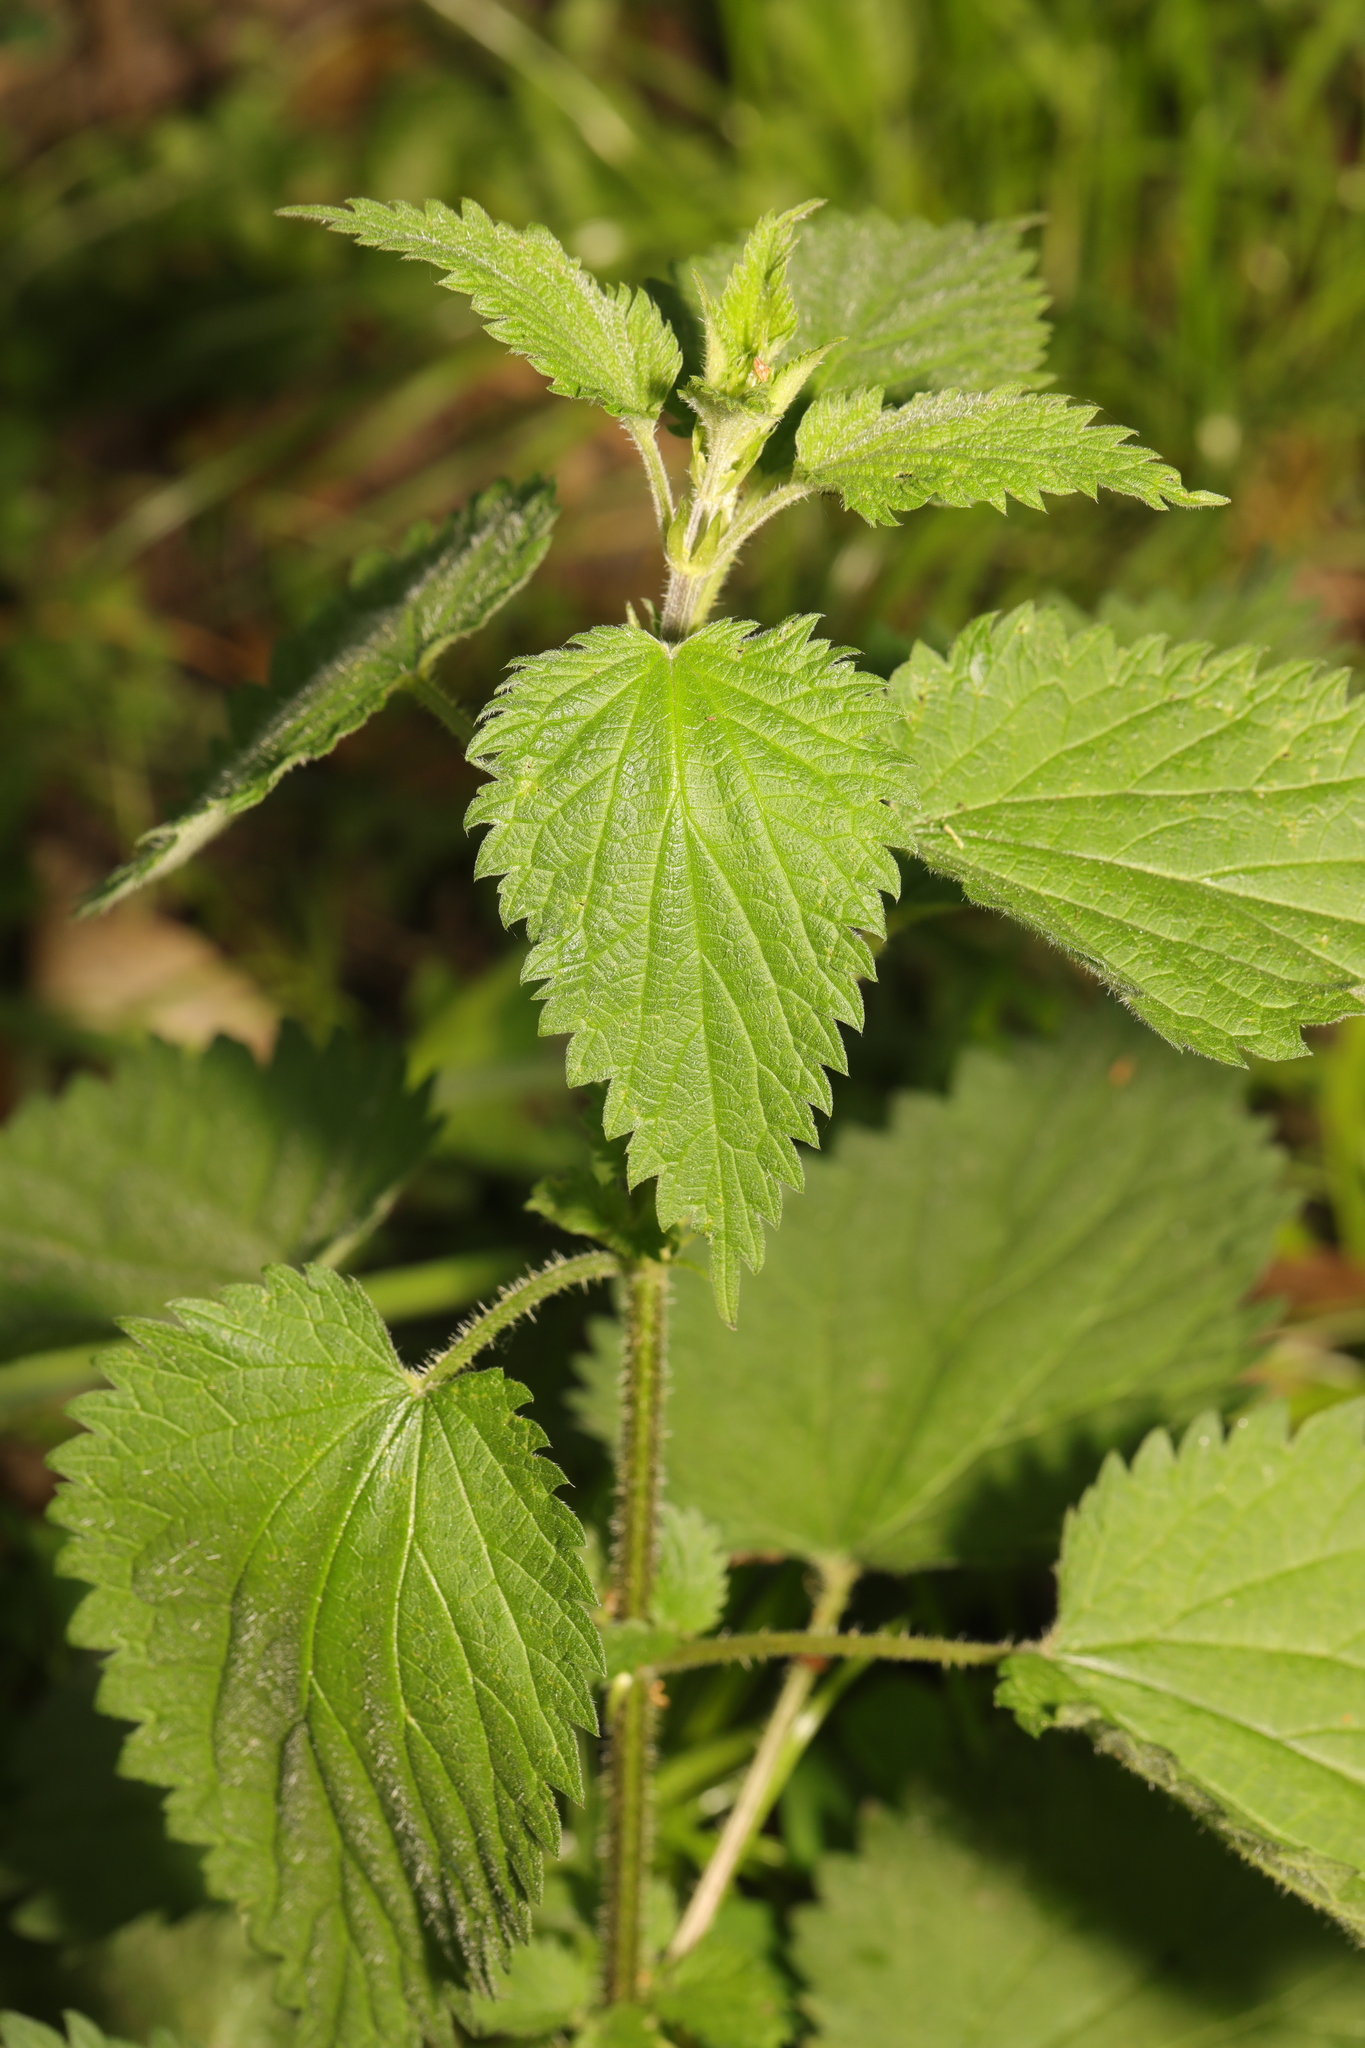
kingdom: Plantae
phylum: Tracheophyta
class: Magnoliopsida
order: Rosales
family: Urticaceae
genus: Urtica
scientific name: Urtica dioica
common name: Common nettle
